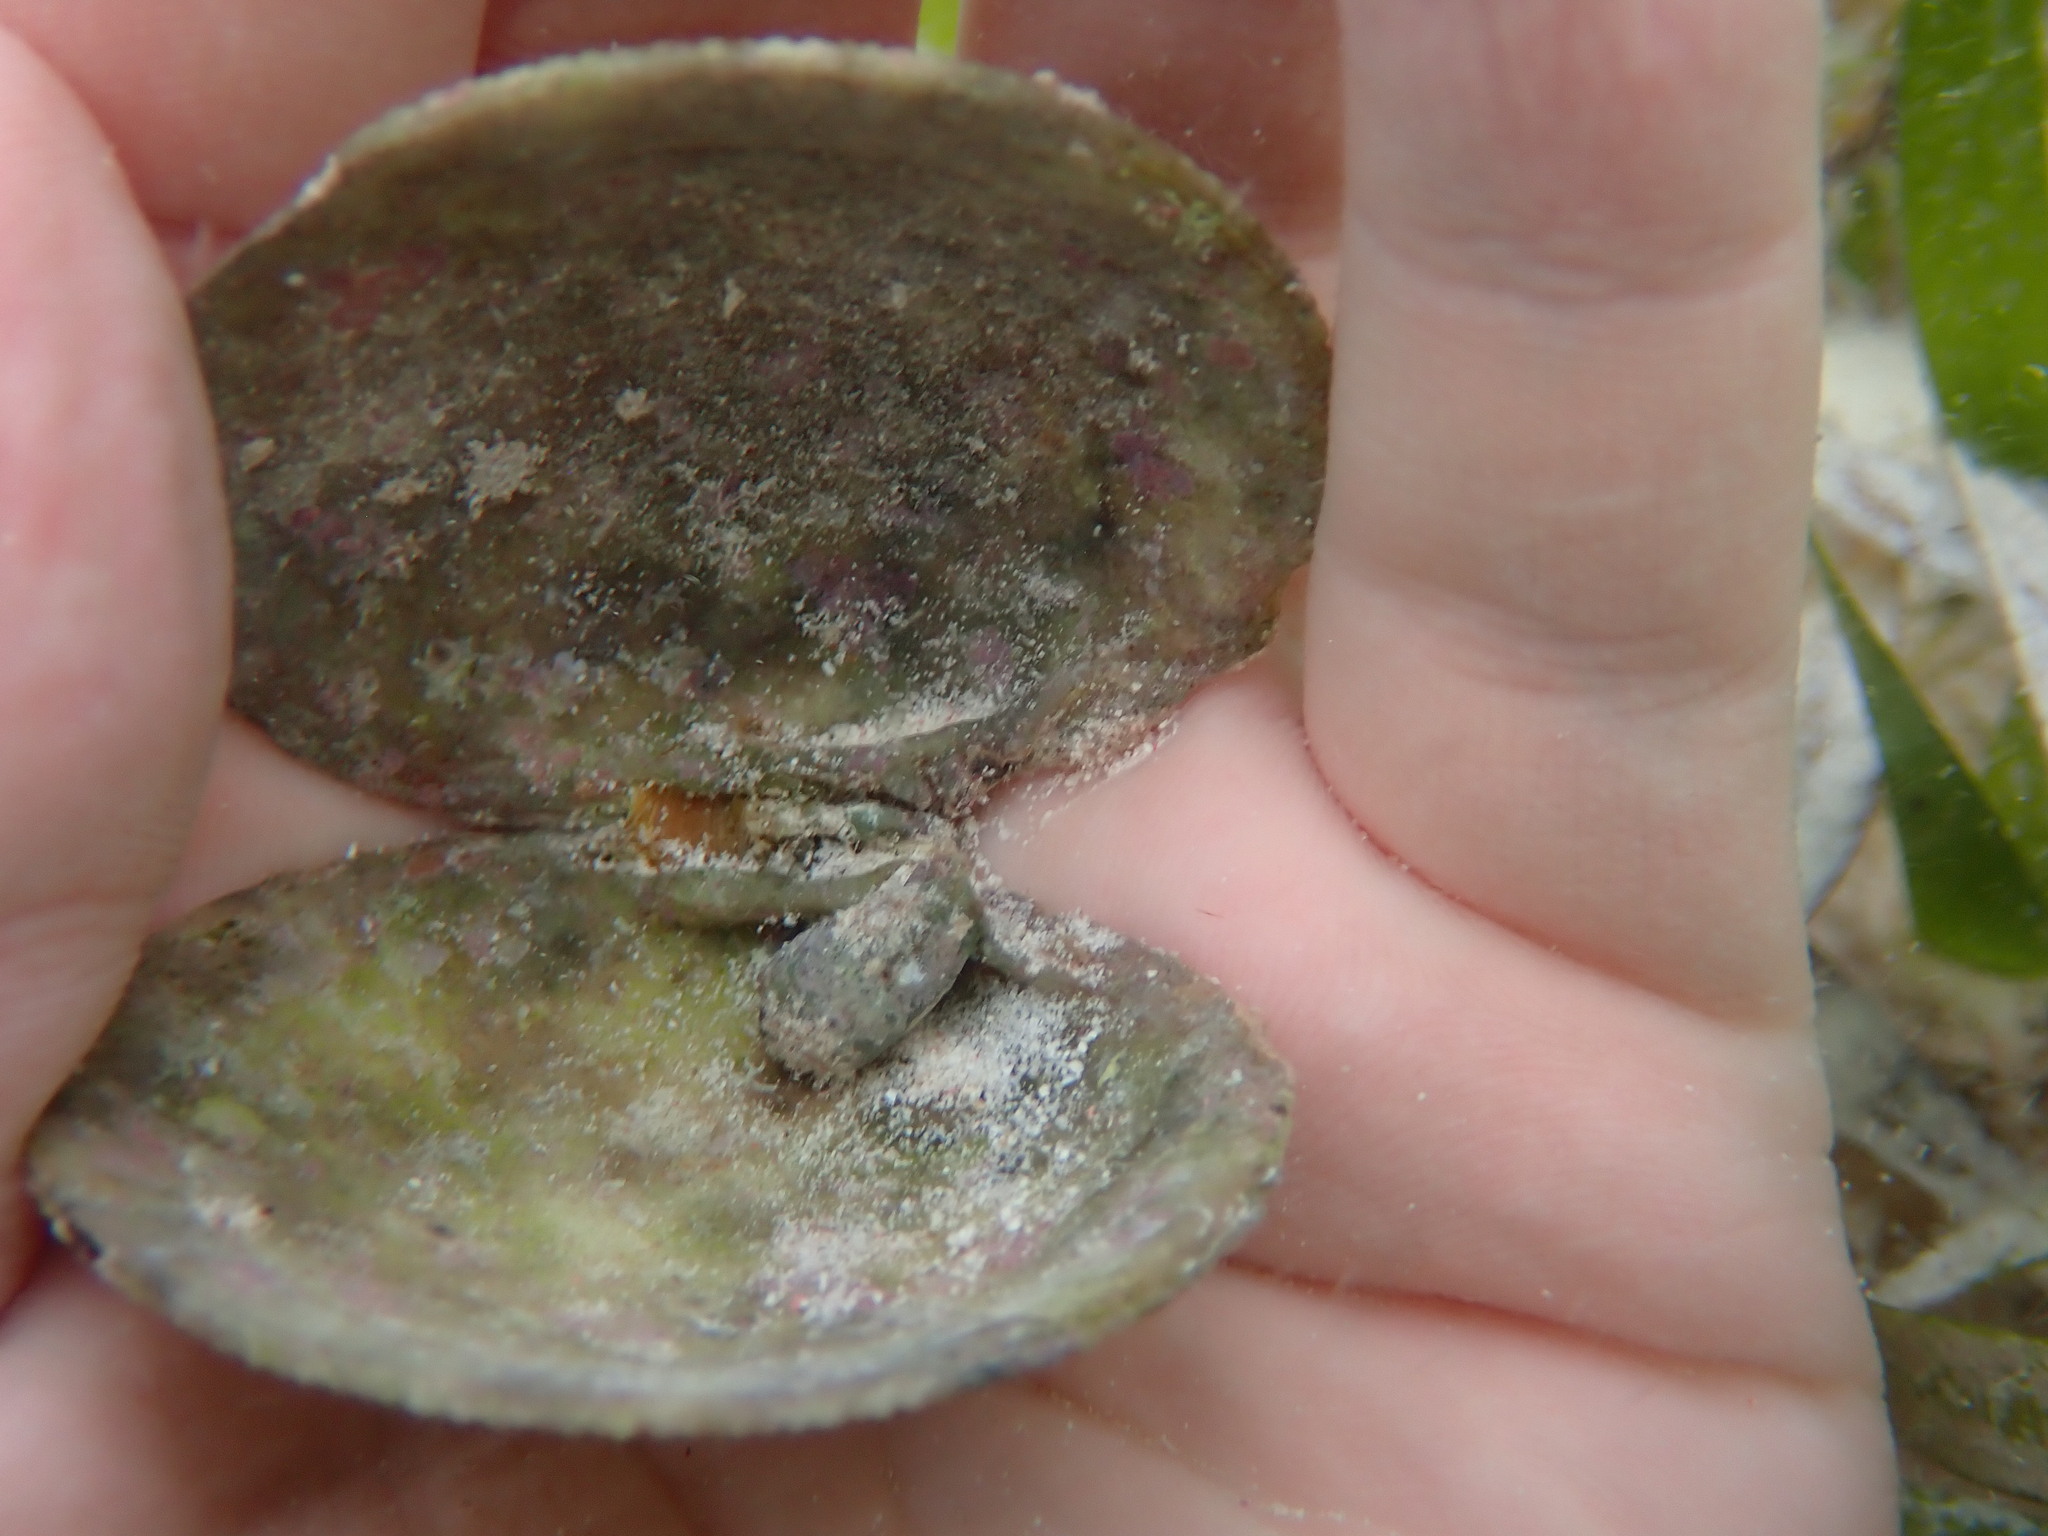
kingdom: Animalia
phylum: Mollusca
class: Bivalvia
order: Lucinida
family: Lucinidae
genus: Codakia
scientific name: Codakia orbicularis
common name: Tiger lucine
